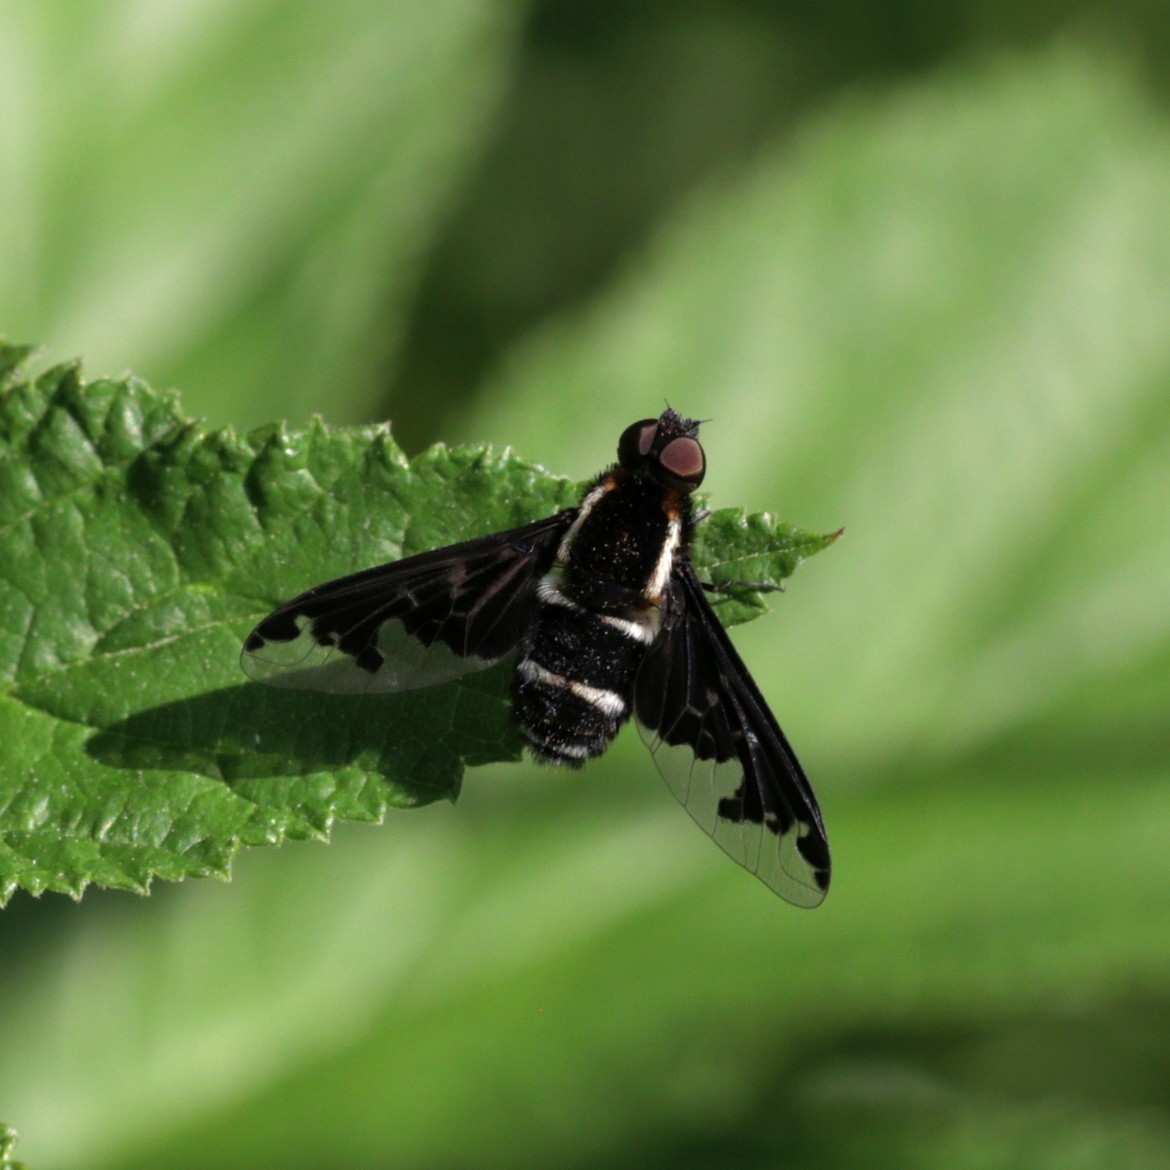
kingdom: Animalia
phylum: Arthropoda
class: Insecta
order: Diptera
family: Bombyliidae
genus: Hemipenthes
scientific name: Hemipenthes maura
